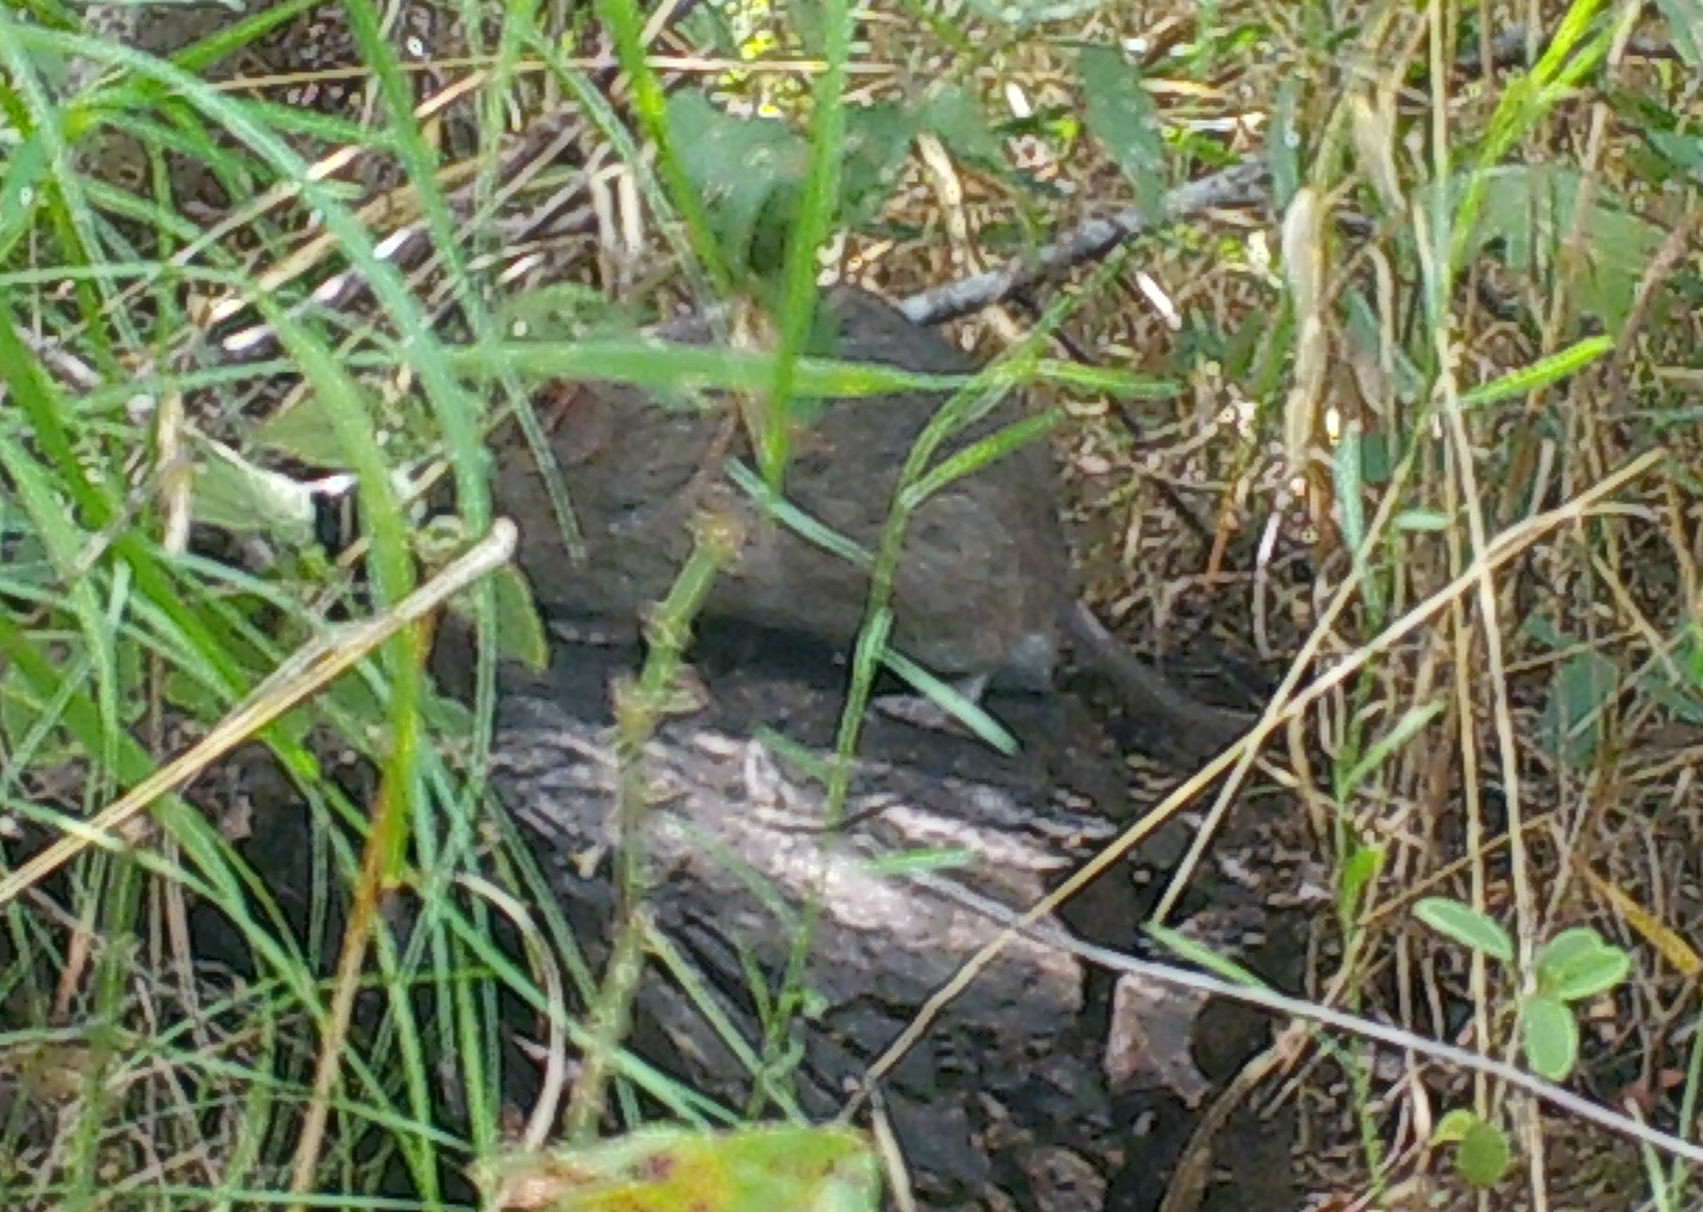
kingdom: Animalia
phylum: Chordata
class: Mammalia
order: Rodentia
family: Cricetidae
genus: Sigmodon
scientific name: Sigmodon hispidus
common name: Hispid cotton rat
